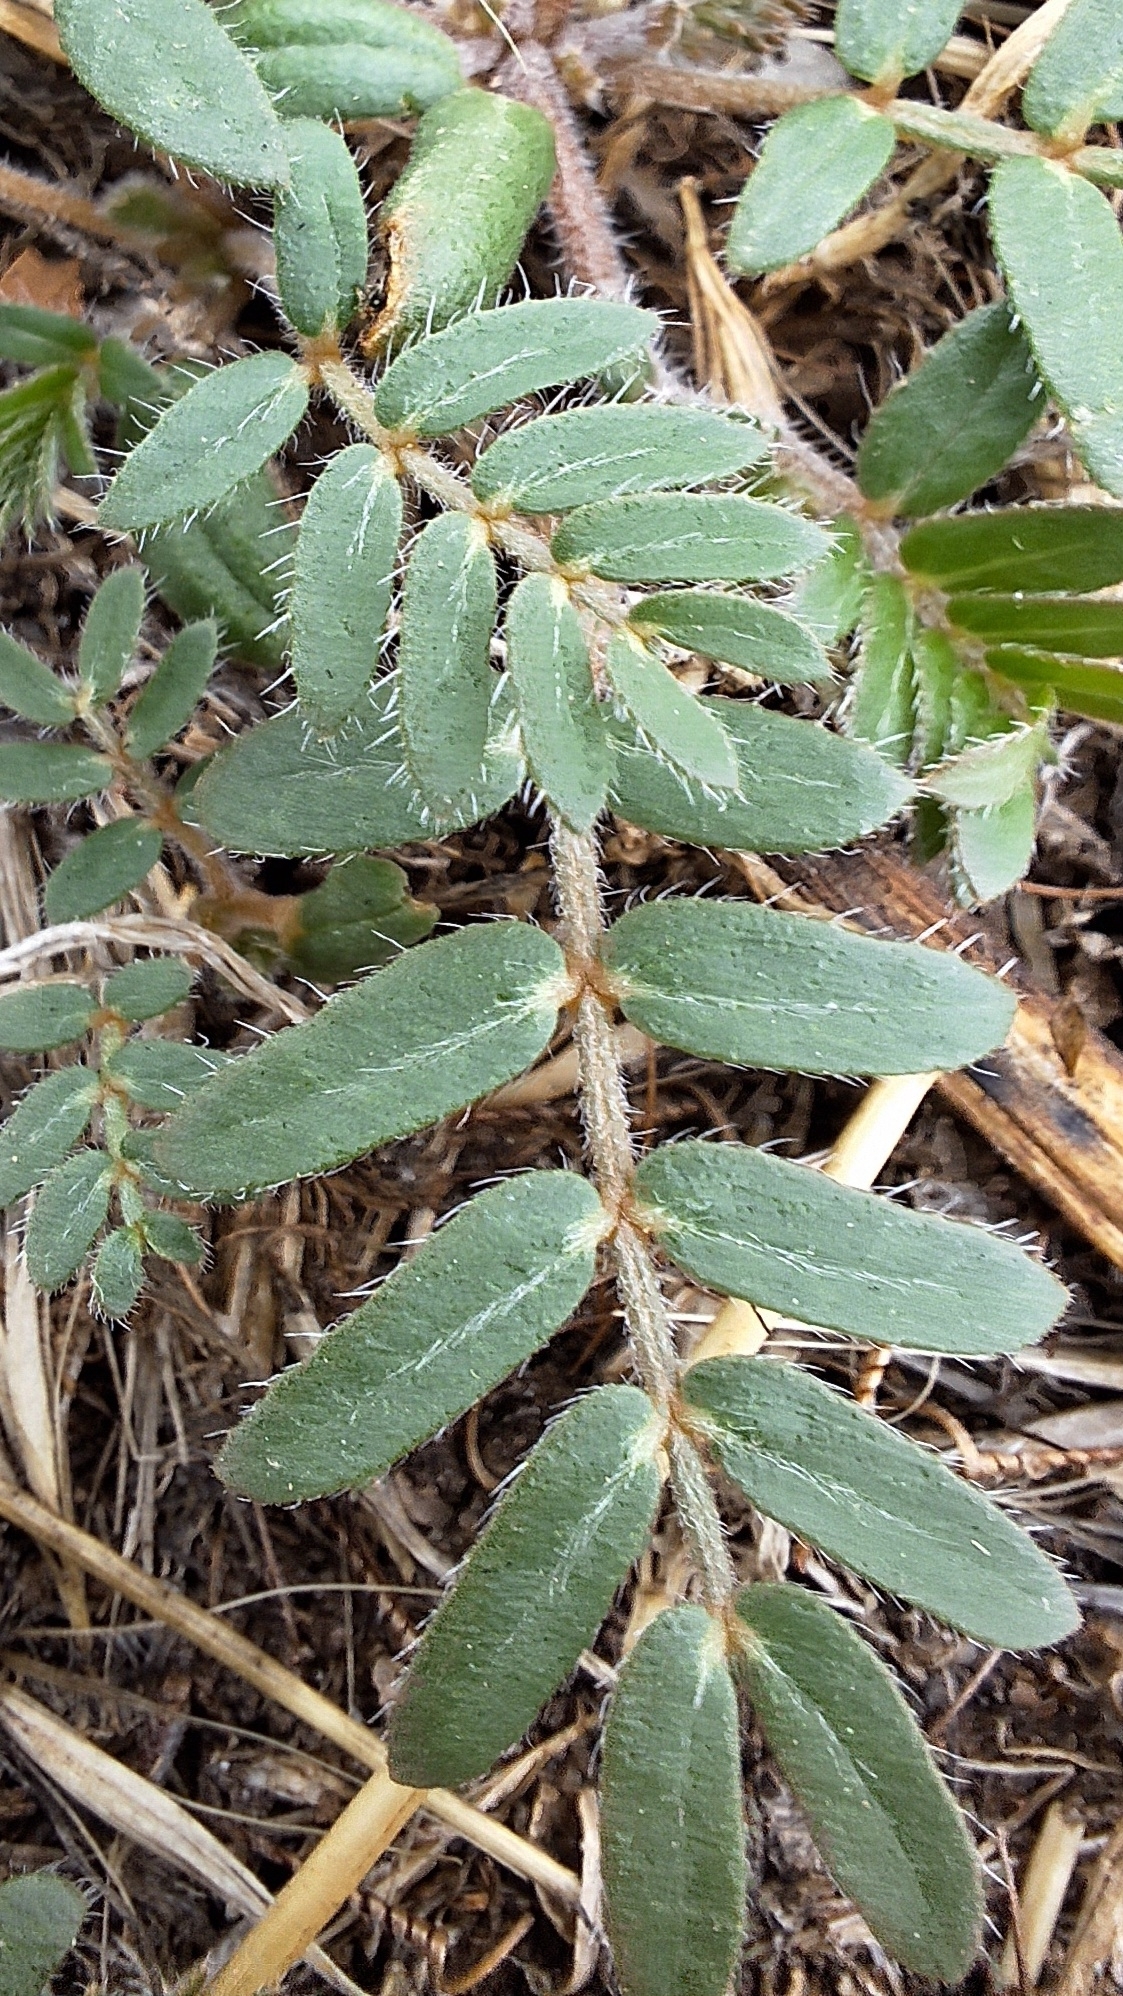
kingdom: Plantae
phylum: Tracheophyta
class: Magnoliopsida
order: Zygophyllales
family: Zygophyllaceae
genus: Tribulus
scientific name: Tribulus terrestris
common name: Puncturevine
